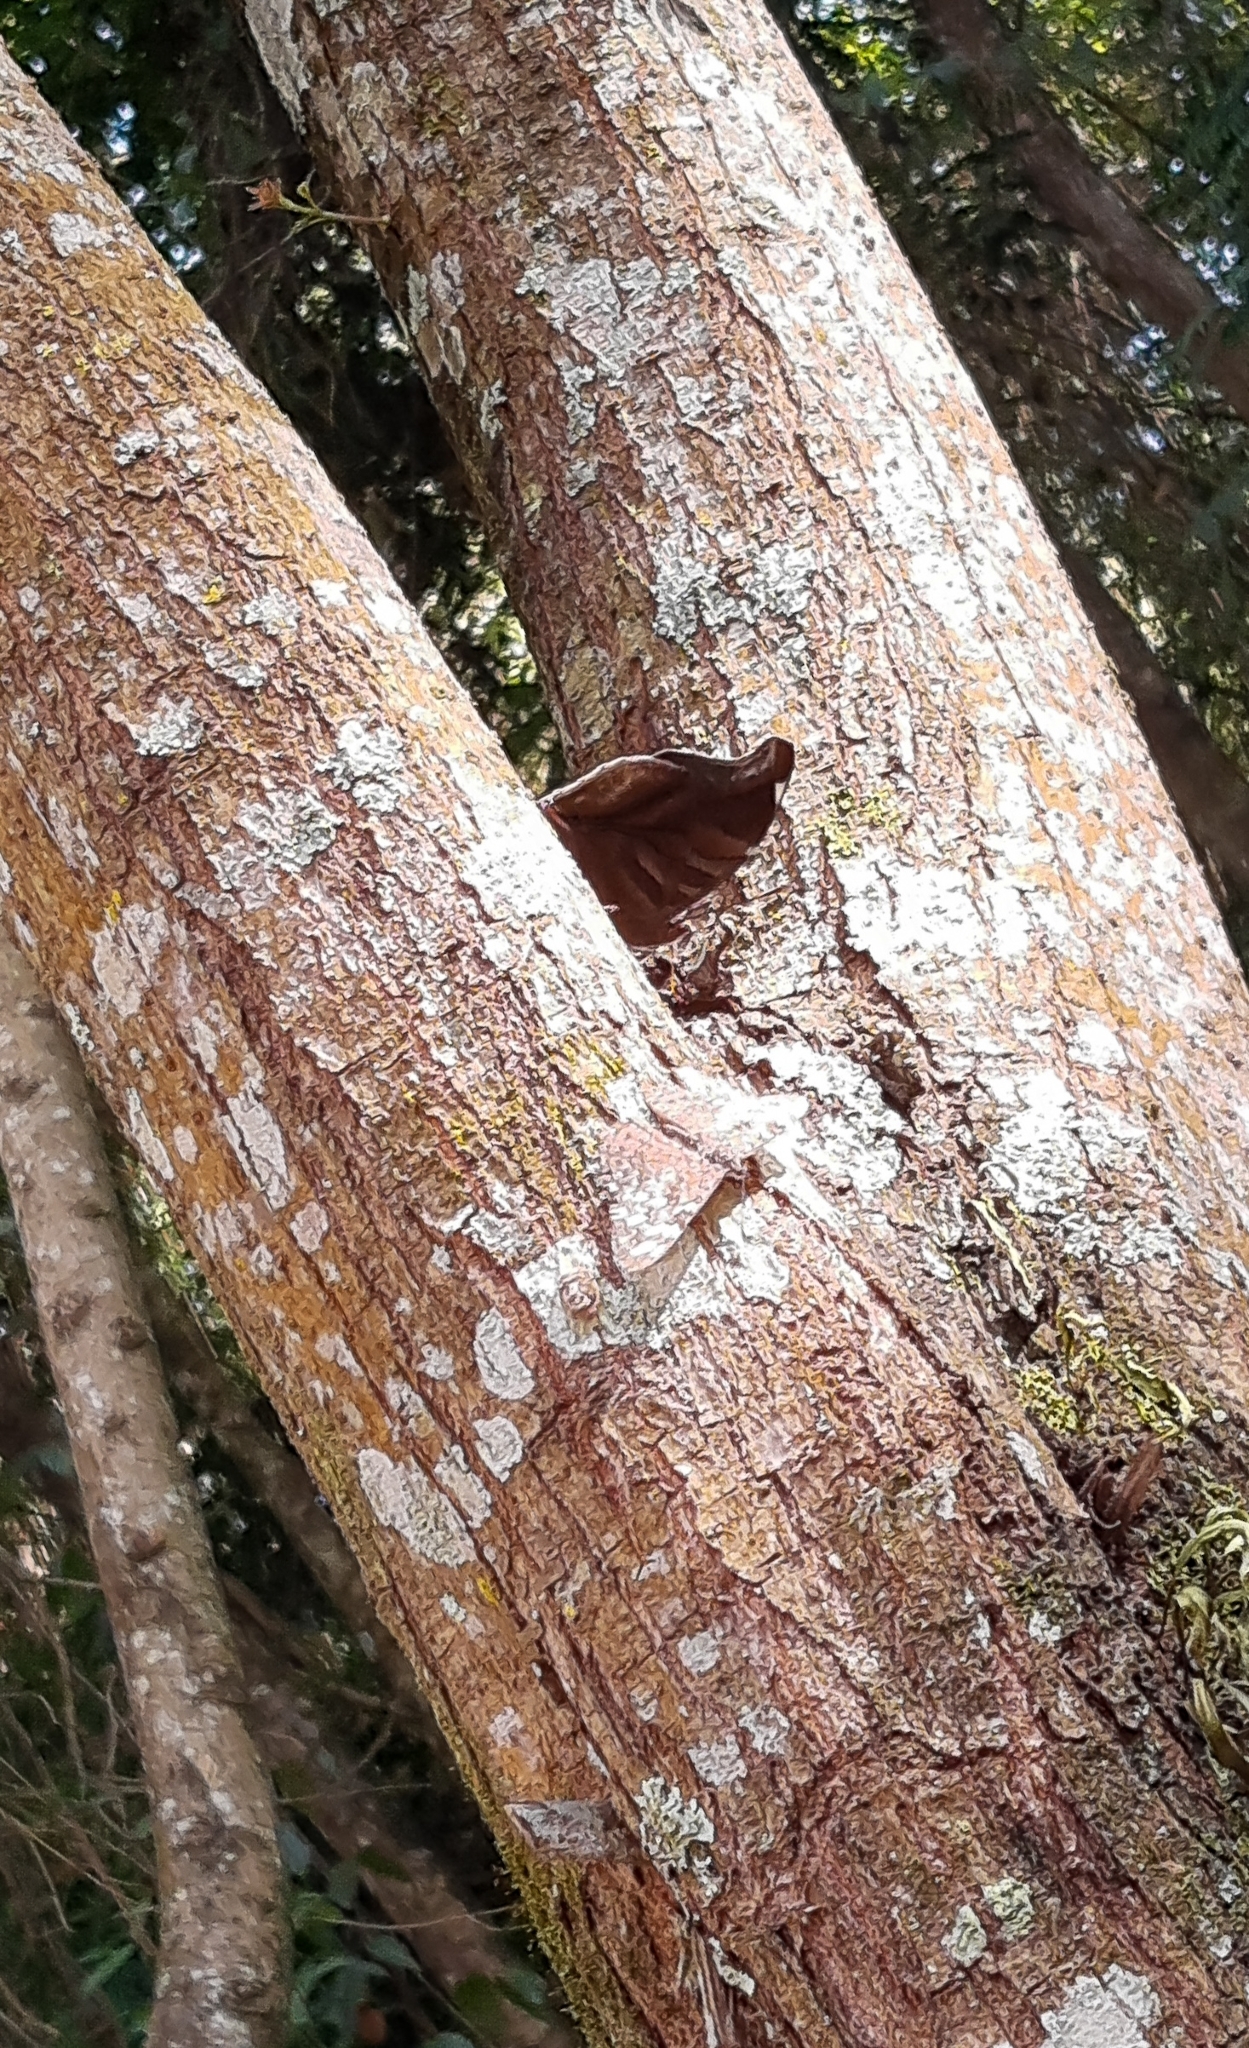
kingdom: Animalia
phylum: Arthropoda
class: Insecta
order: Lepidoptera
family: Nymphalidae
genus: Historis
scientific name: Historis odius
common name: Orion cecropian
